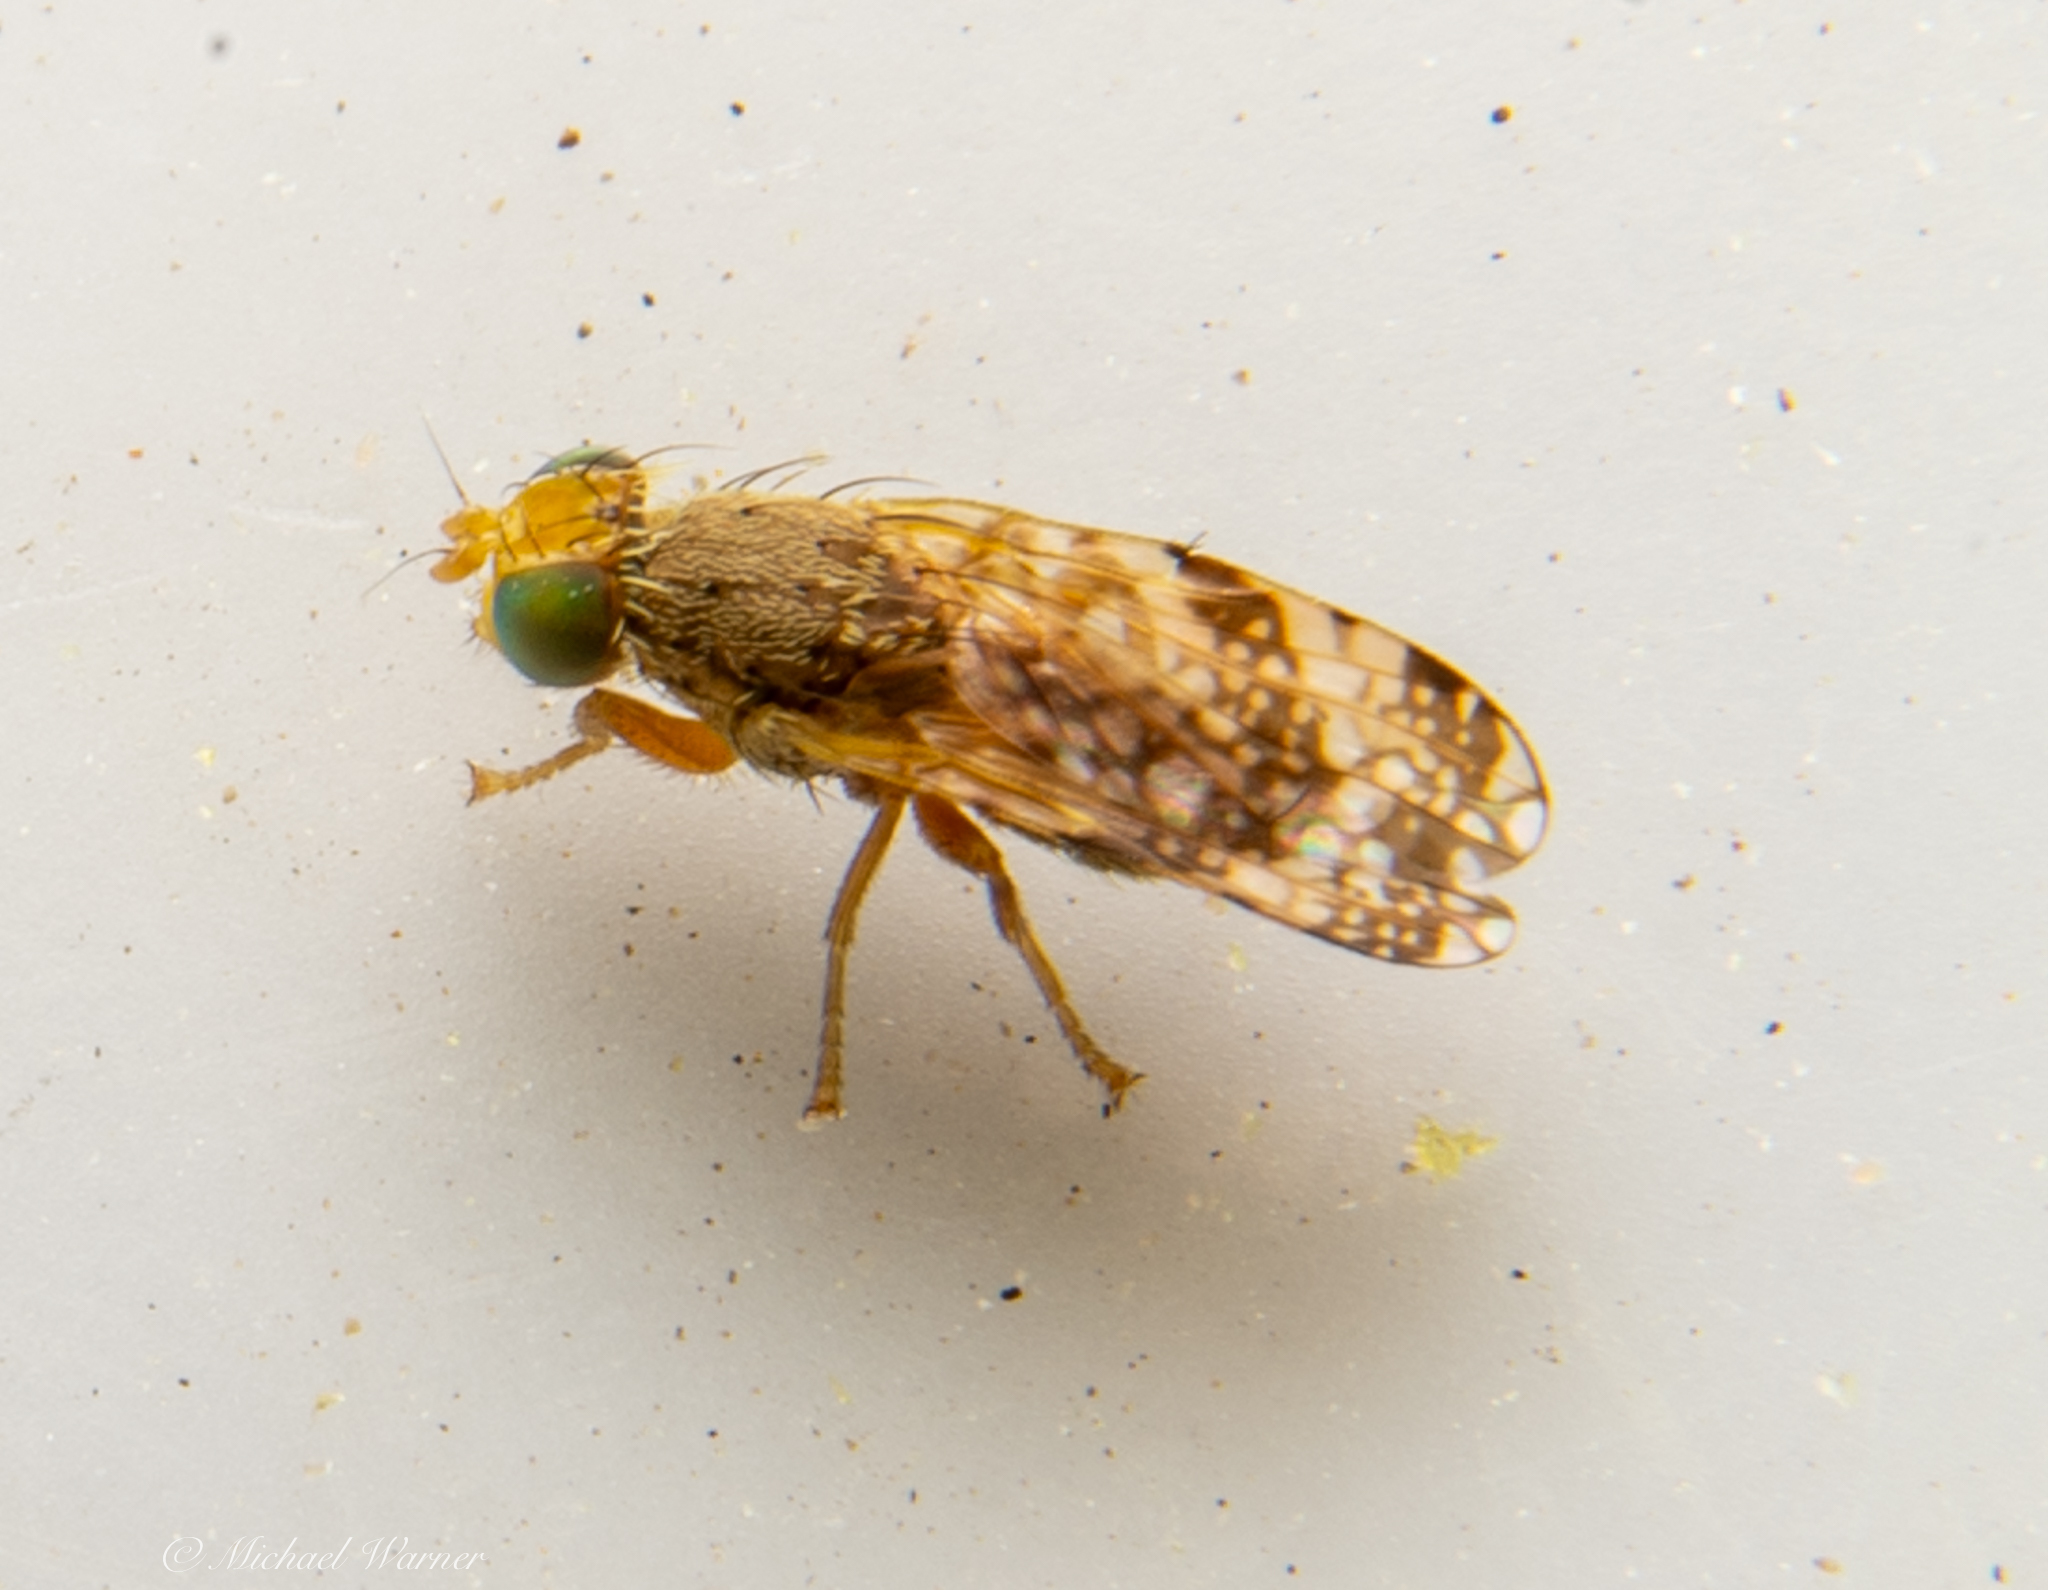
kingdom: Animalia
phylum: Arthropoda
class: Insecta
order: Diptera
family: Tephritidae
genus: Tephritis
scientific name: Tephritis californica
